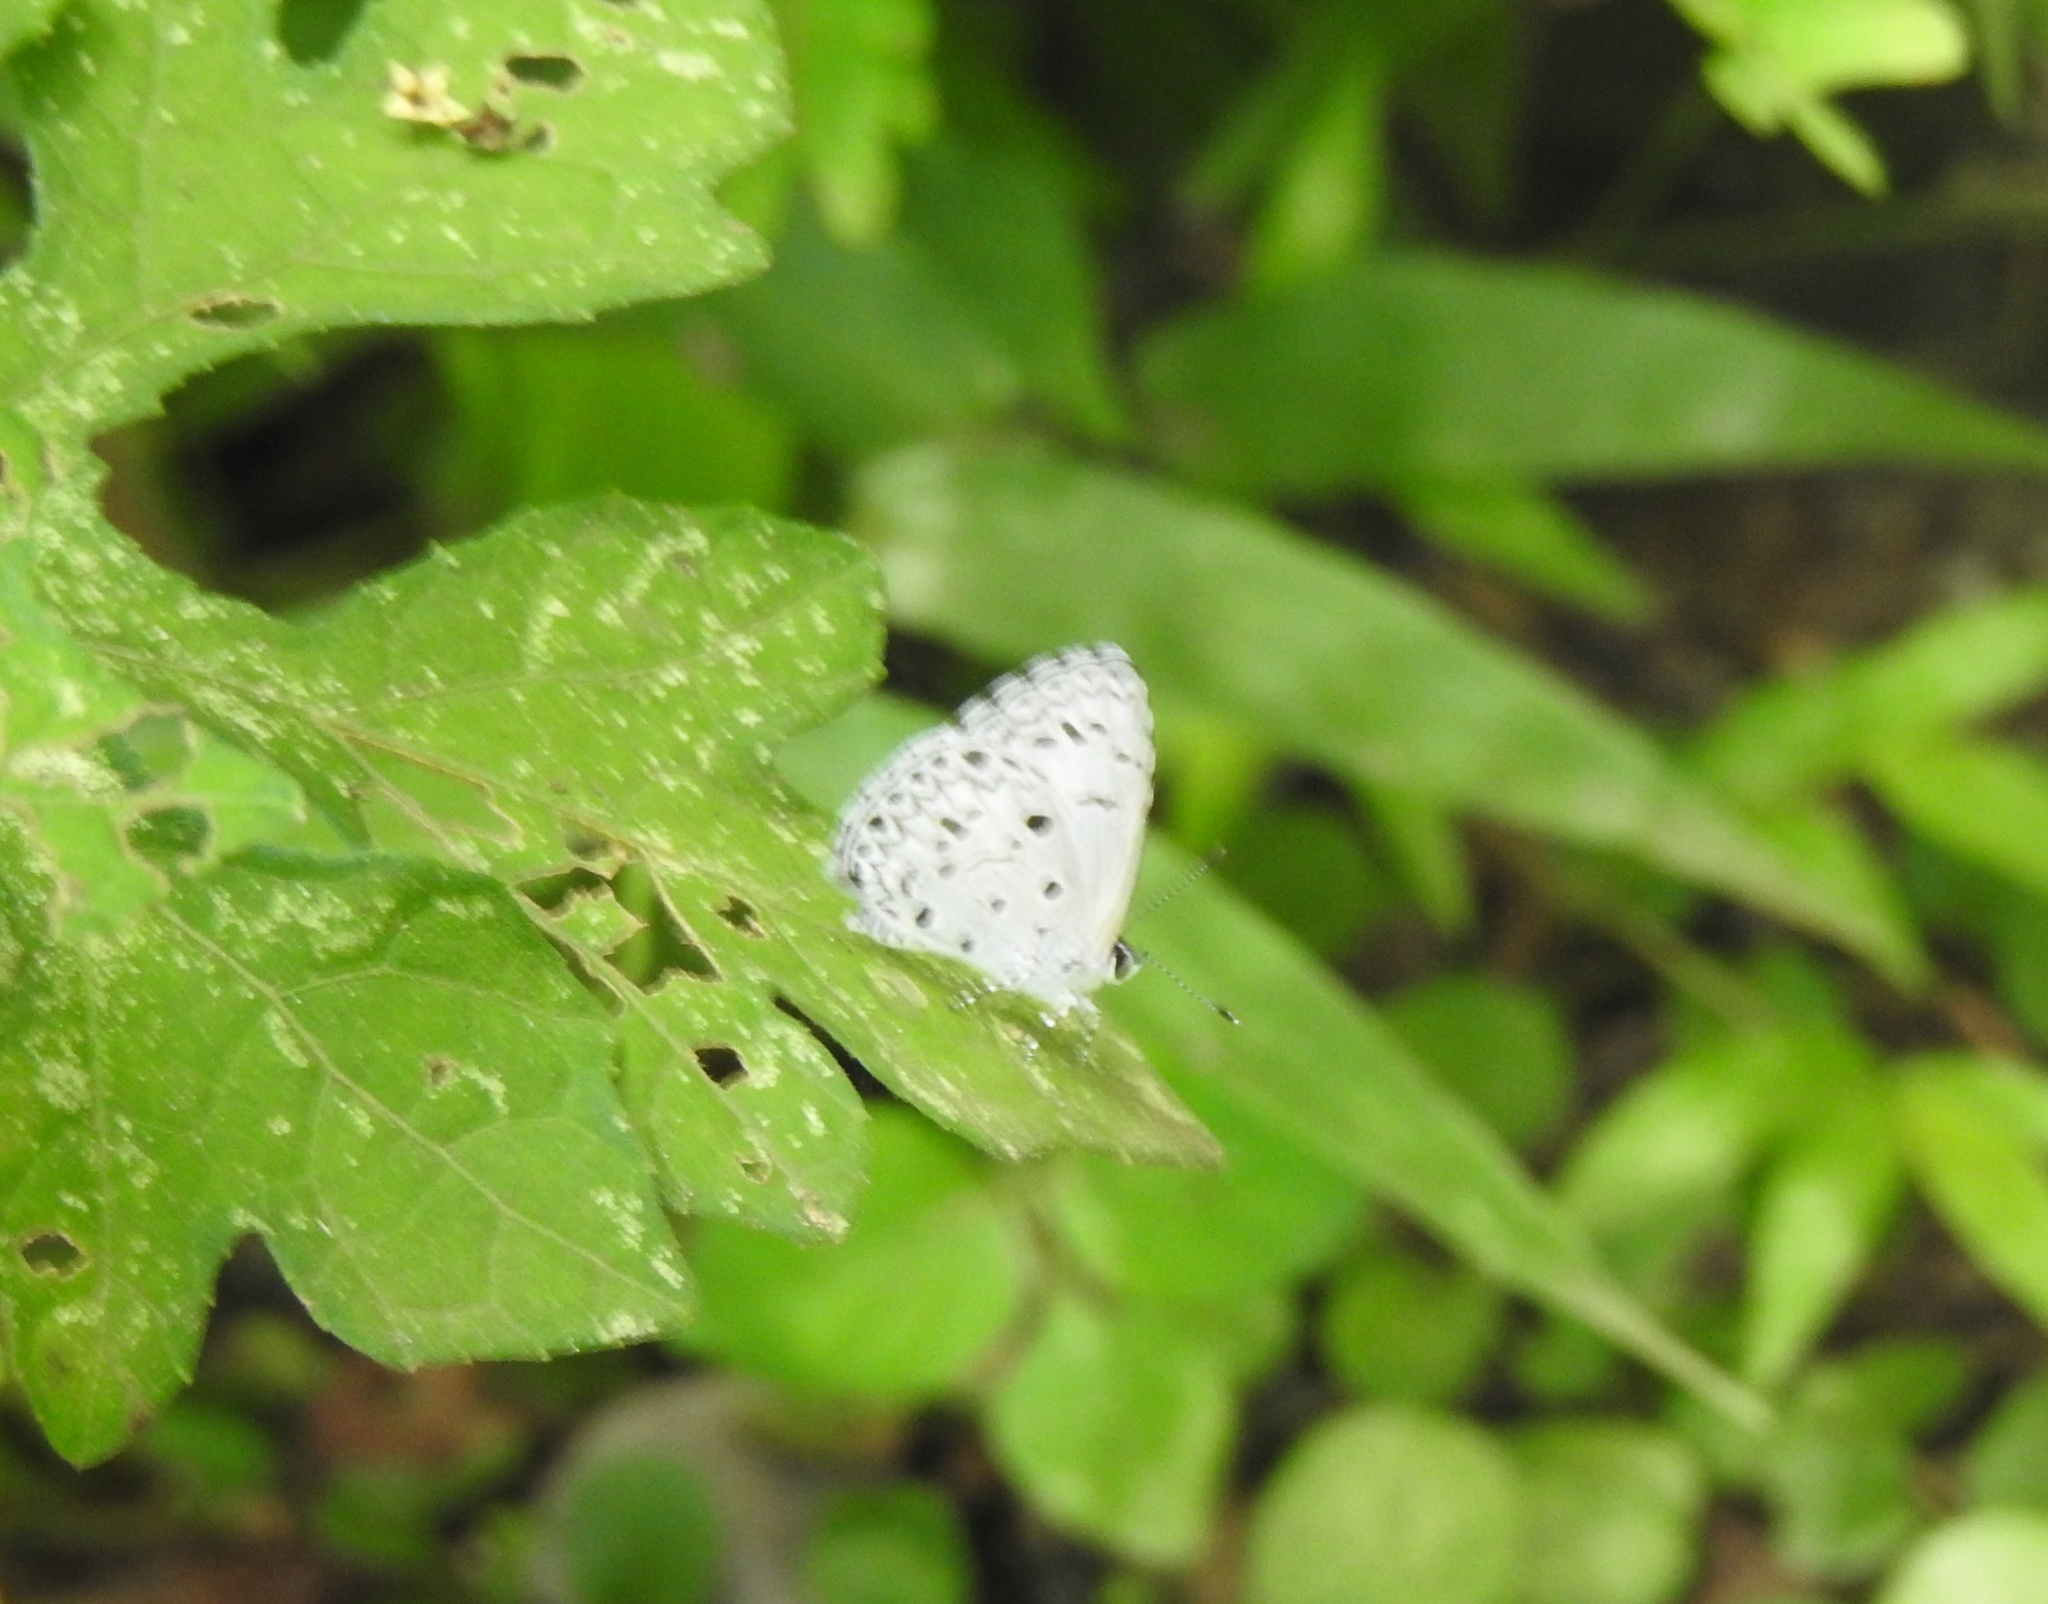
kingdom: Animalia
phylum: Arthropoda
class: Insecta
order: Lepidoptera
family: Lycaenidae
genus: Acytolepis
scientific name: Acytolepis puspa
